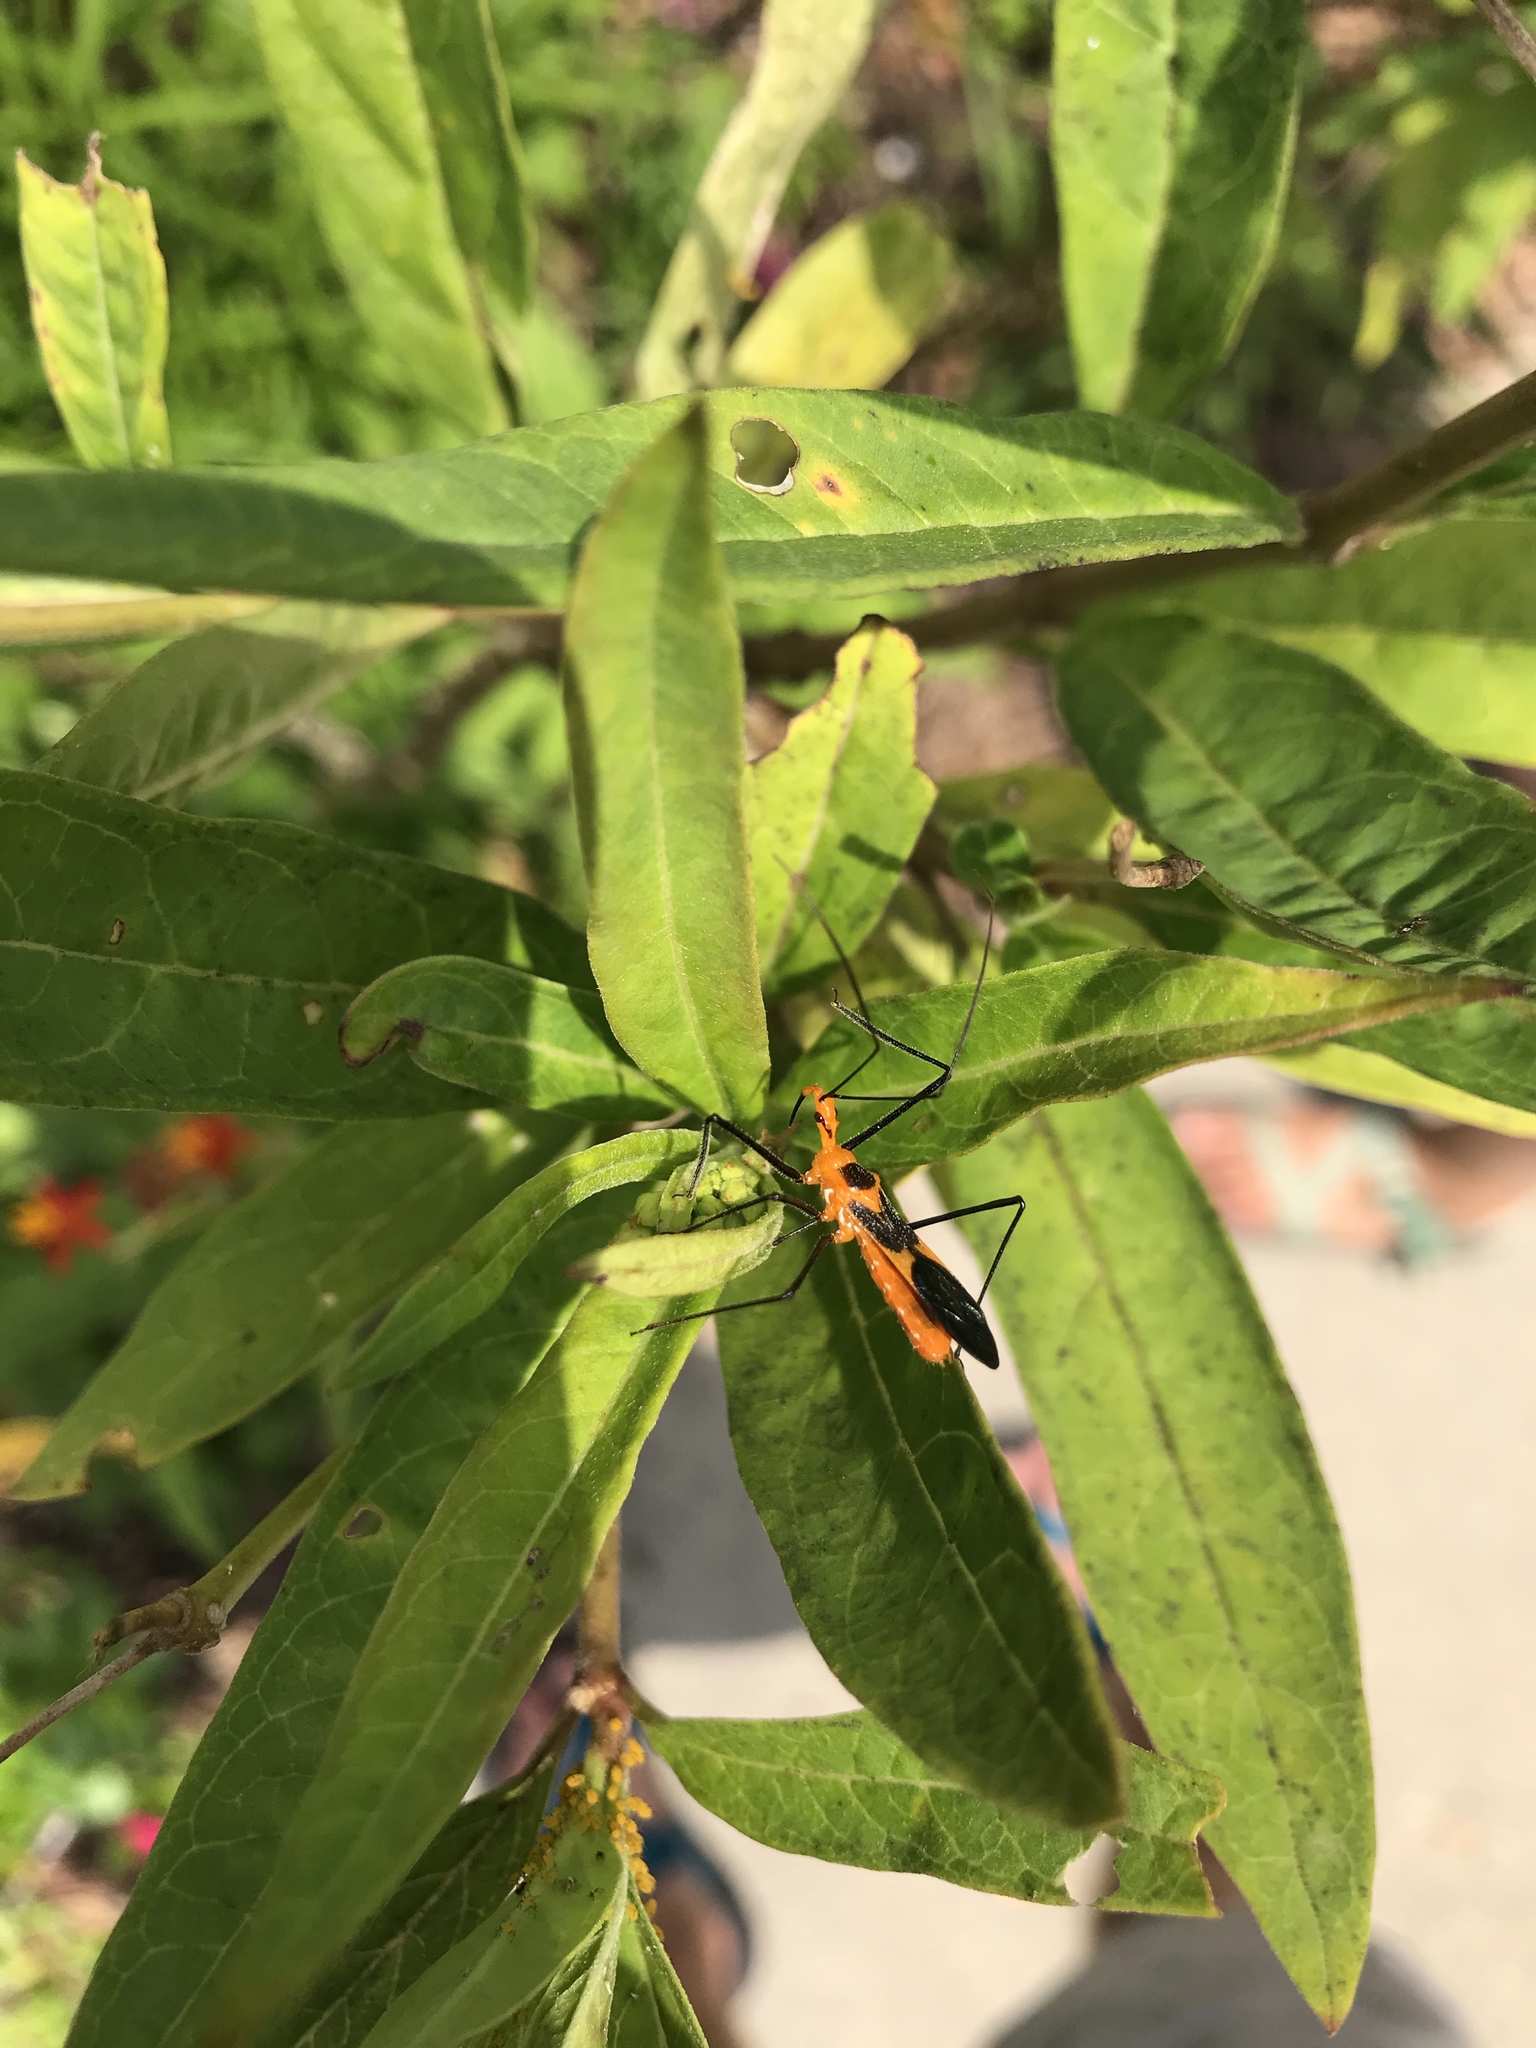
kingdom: Animalia
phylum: Arthropoda
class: Insecta
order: Hemiptera
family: Reduviidae
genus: Zelus
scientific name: Zelus longipes
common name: Milkweed assassin bug
